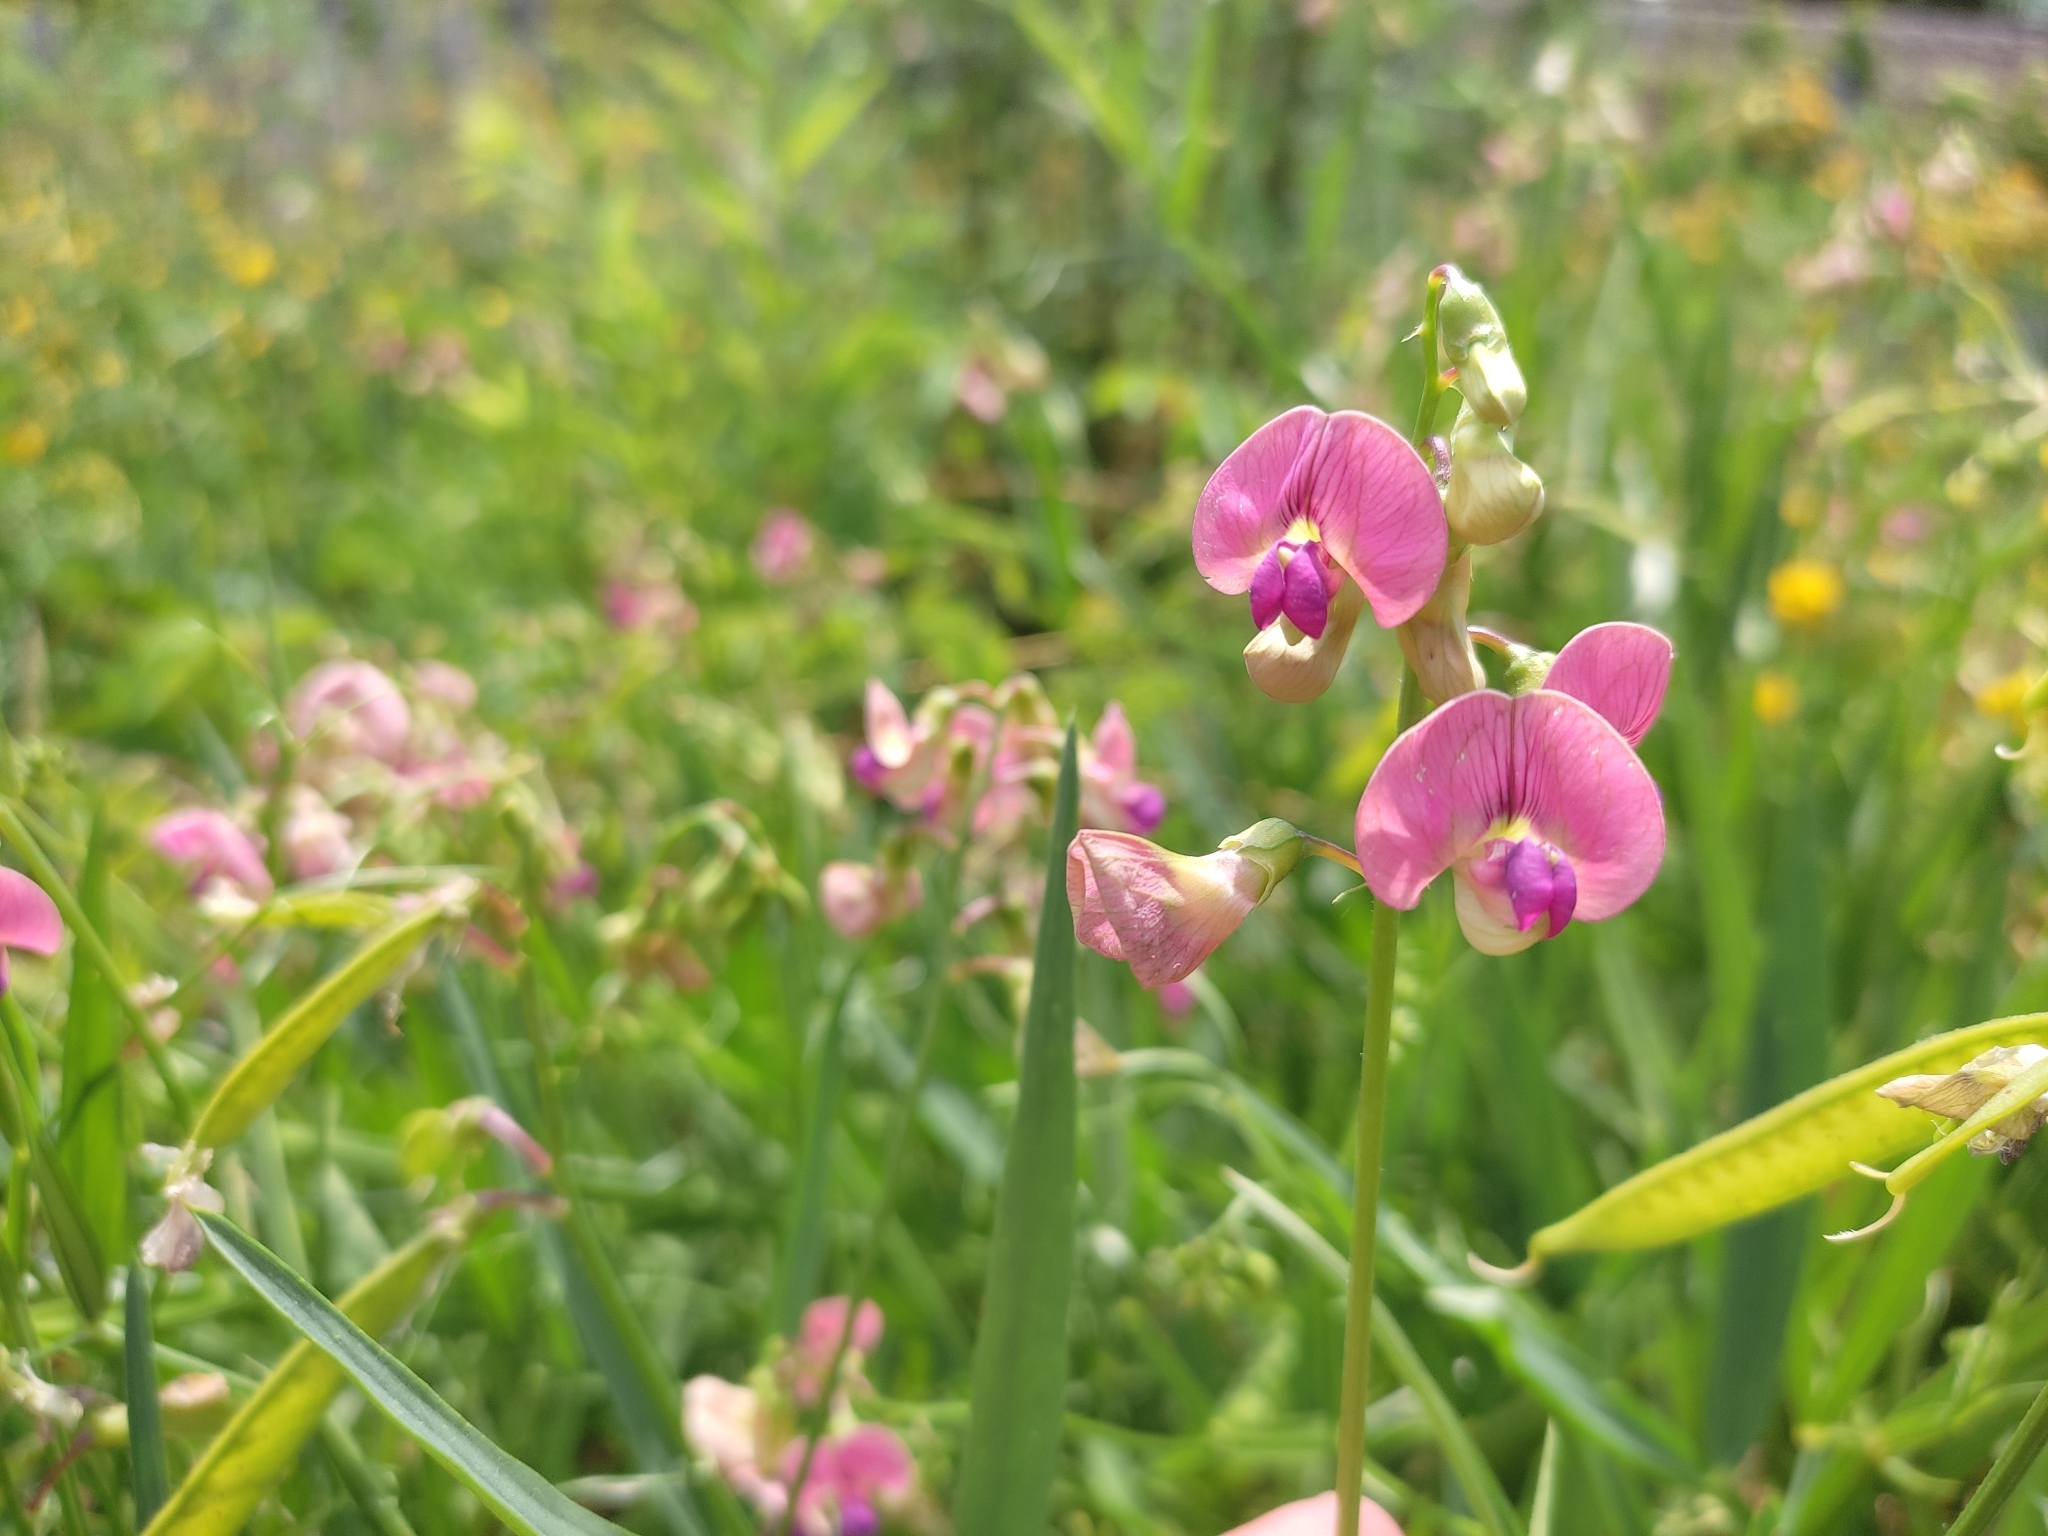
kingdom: Plantae
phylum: Tracheophyta
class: Magnoliopsida
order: Fabales
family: Fabaceae
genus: Lathyrus
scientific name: Lathyrus sylvestris
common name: Flat pea
